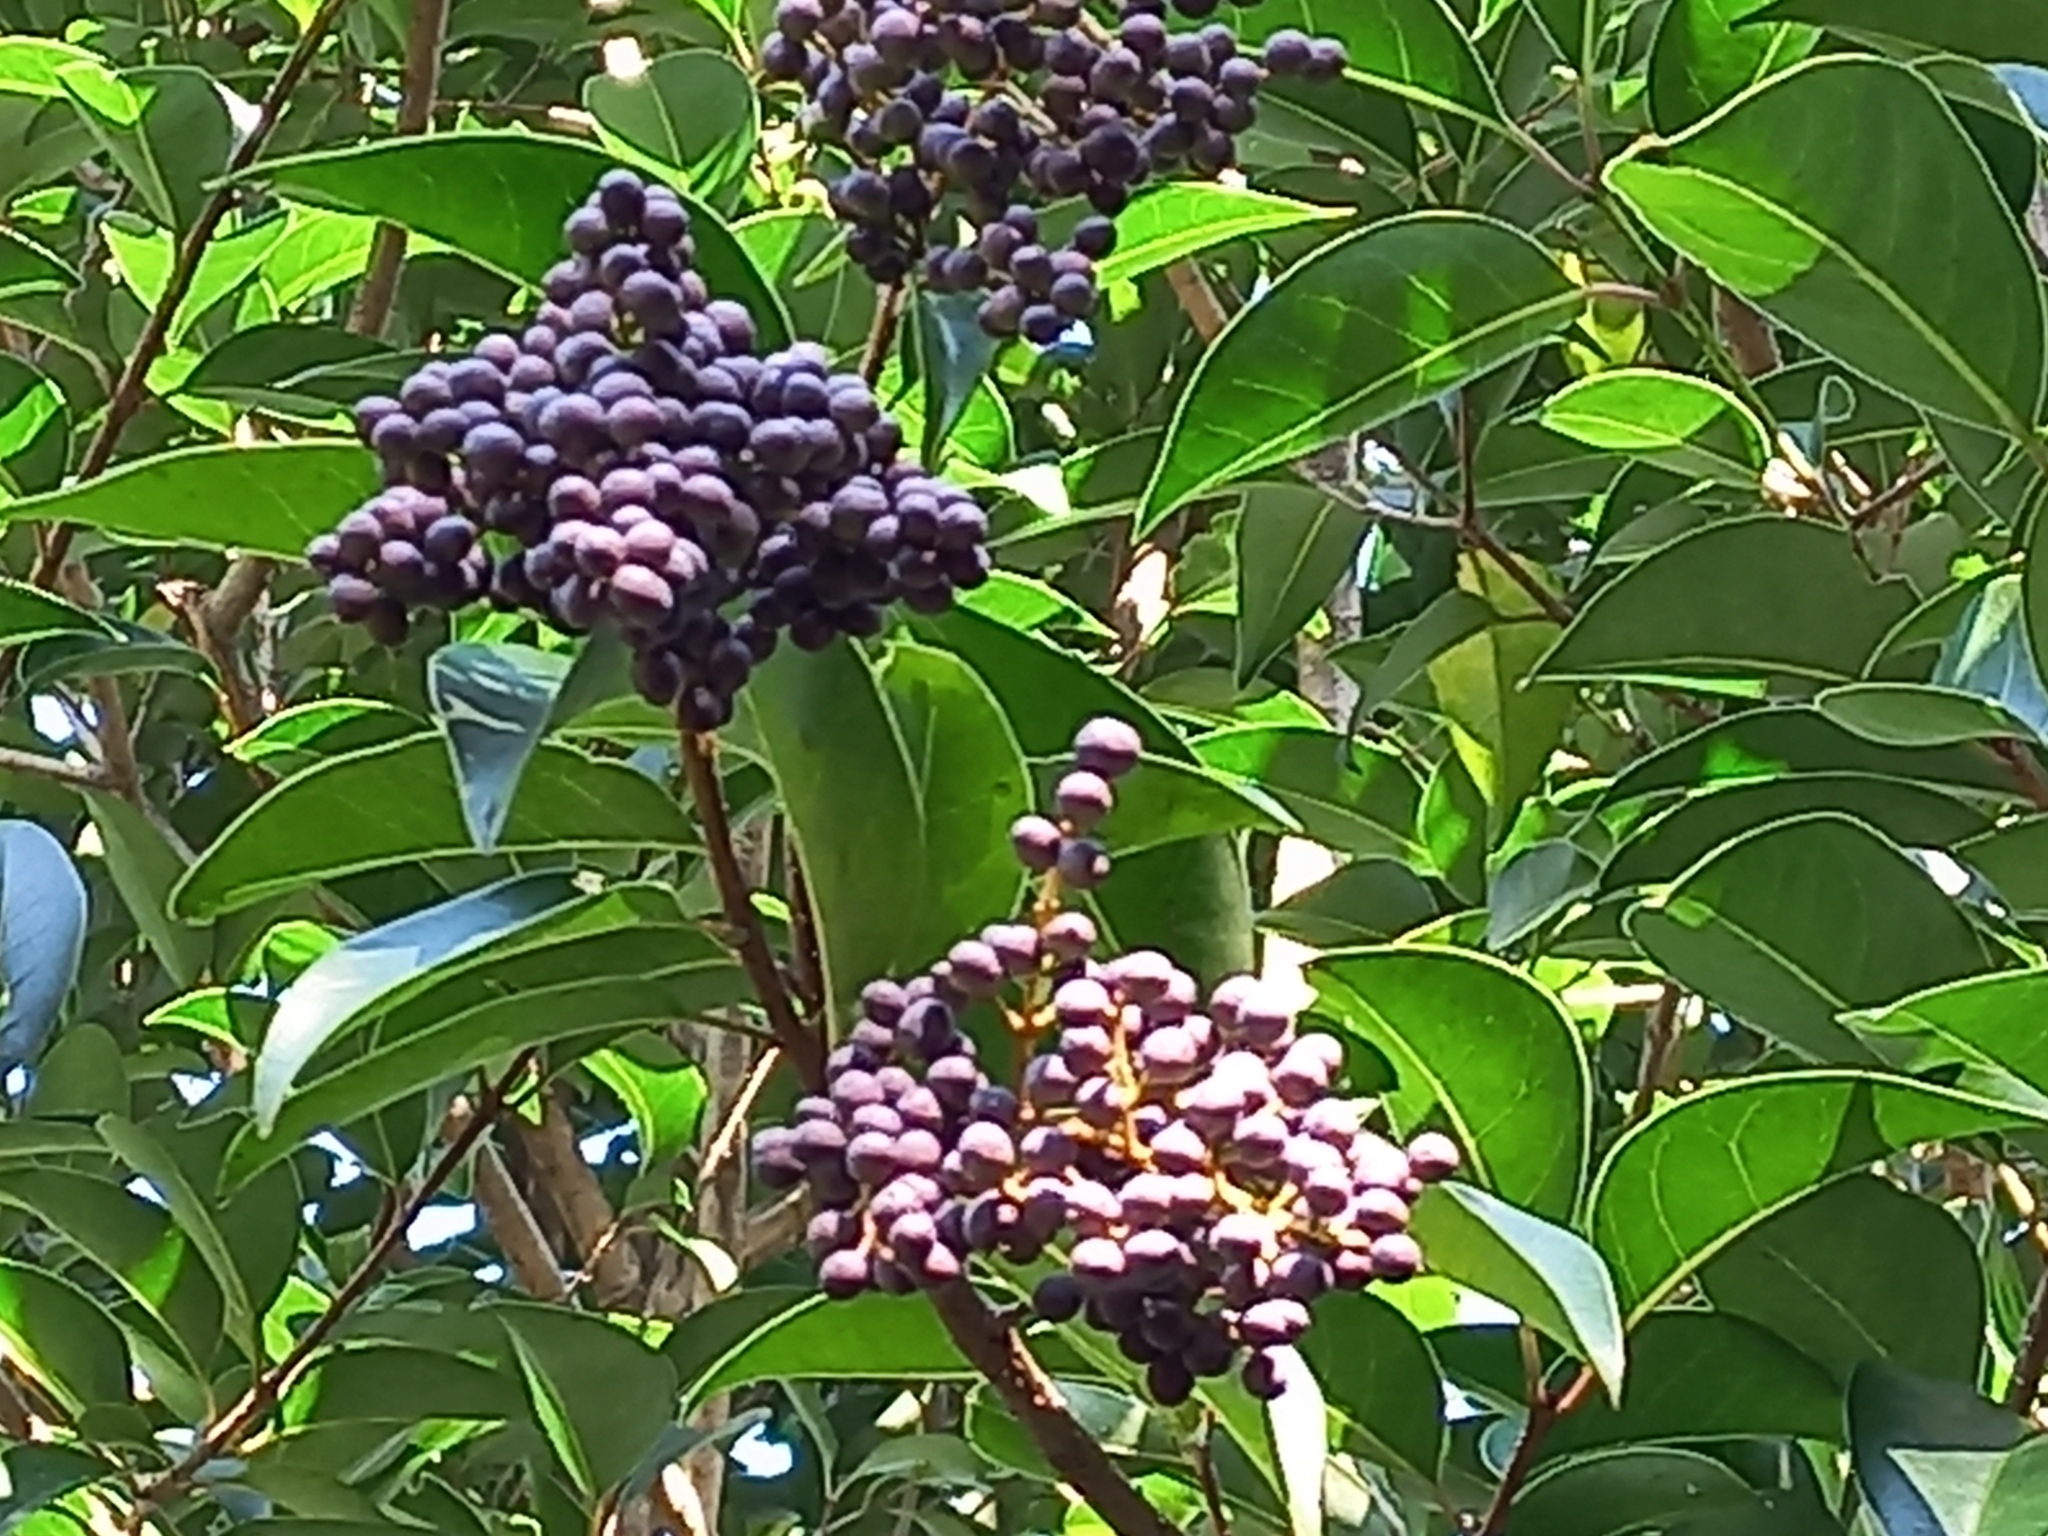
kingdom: Plantae
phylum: Tracheophyta
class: Magnoliopsida
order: Lamiales
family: Oleaceae
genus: Ligustrum
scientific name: Ligustrum lucidum
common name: Glossy privet
